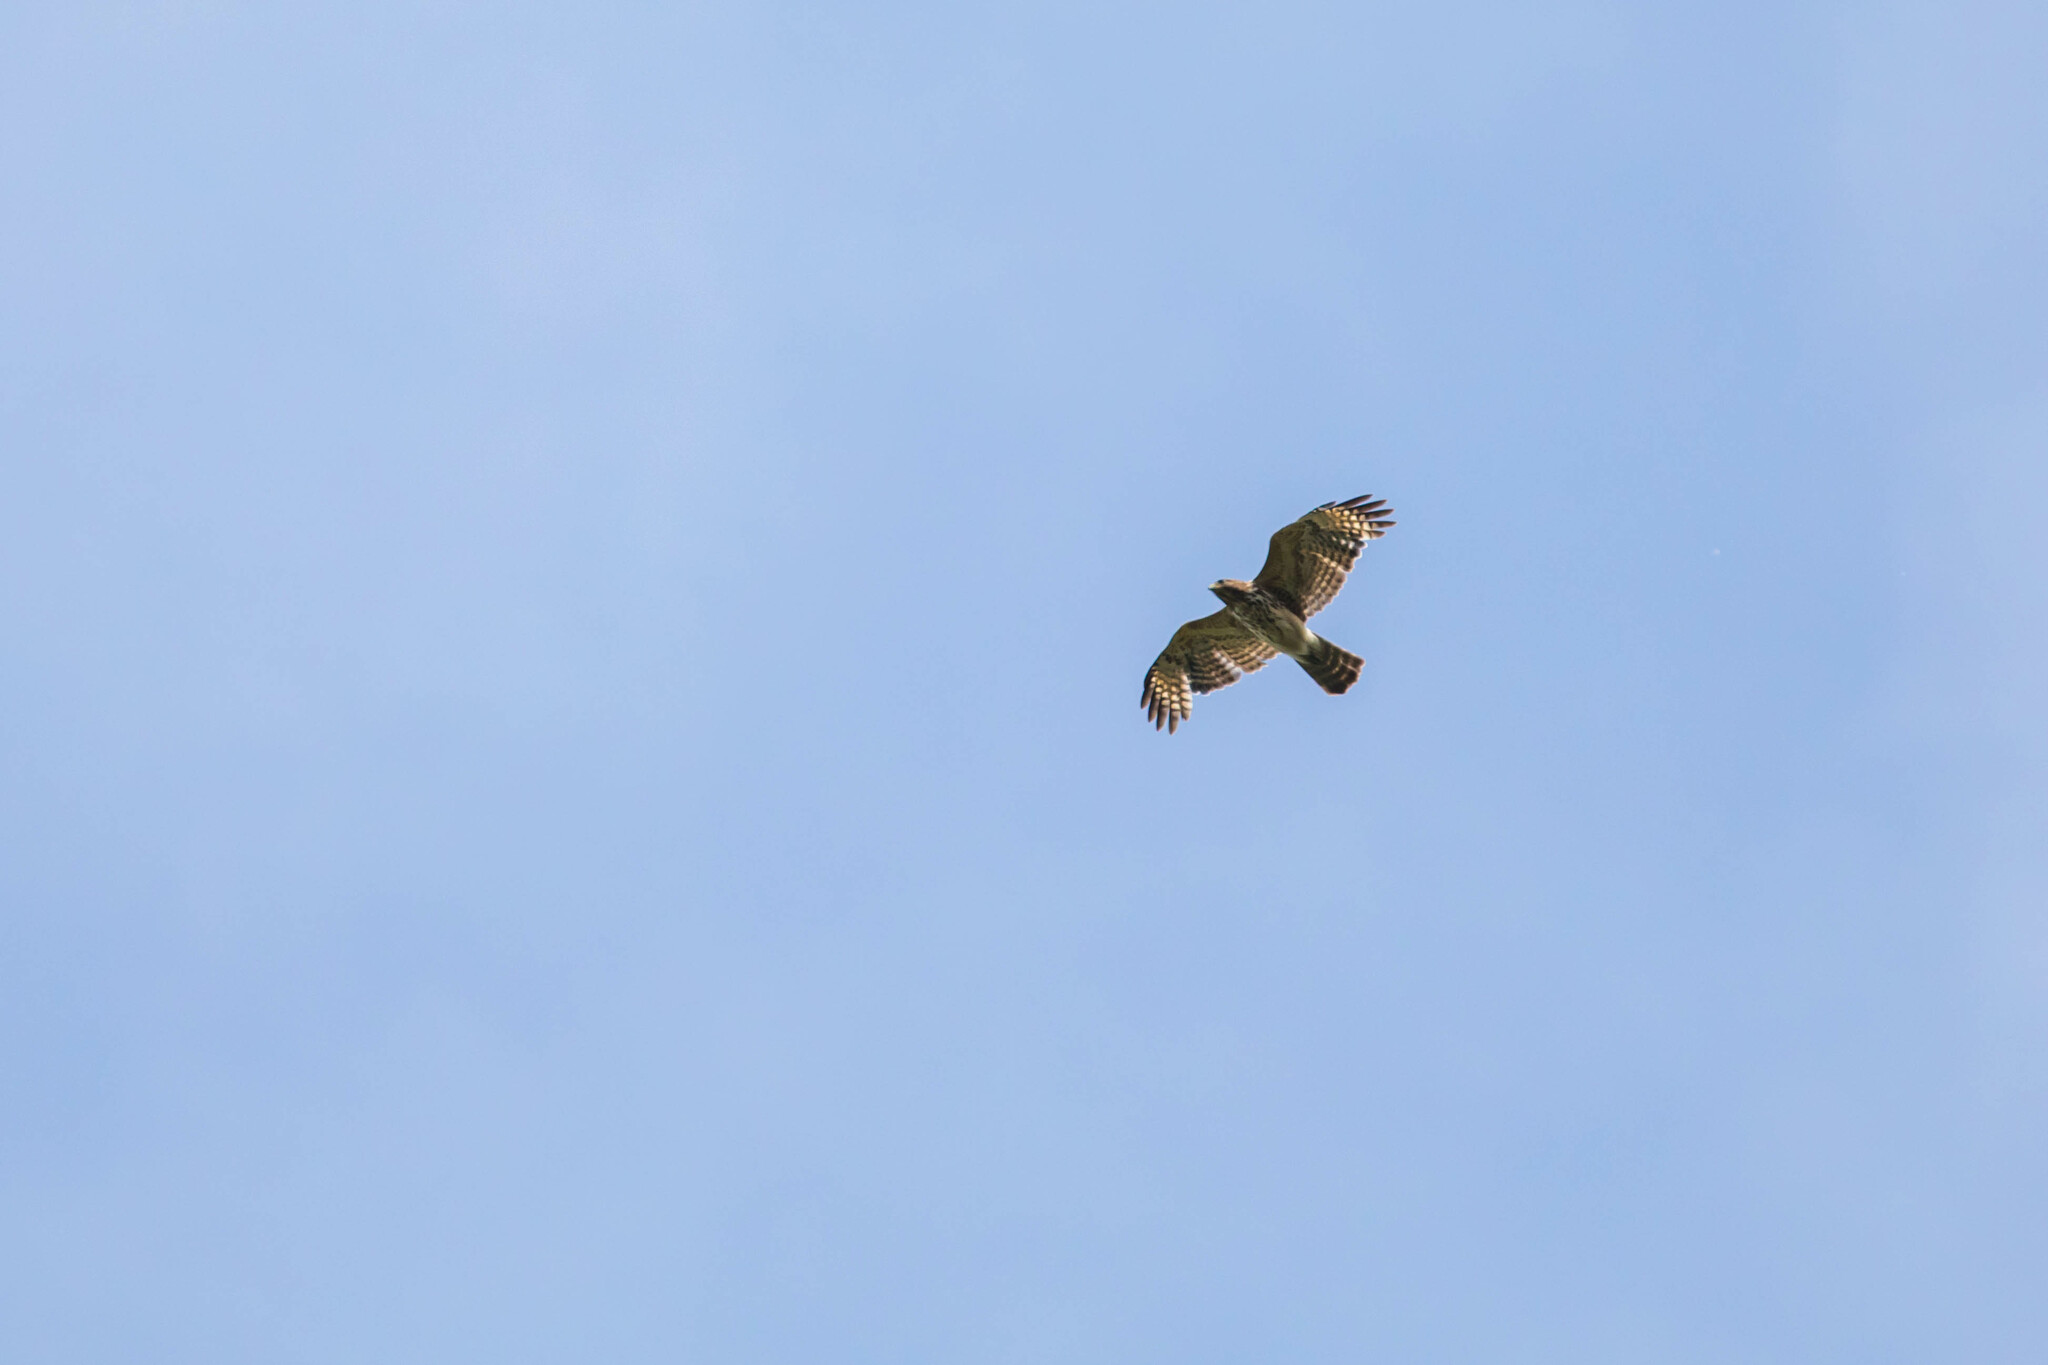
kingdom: Animalia
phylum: Chordata
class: Aves
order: Accipitriformes
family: Accipitridae
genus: Buteo
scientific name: Buteo lineatus
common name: Red-shouldered hawk
